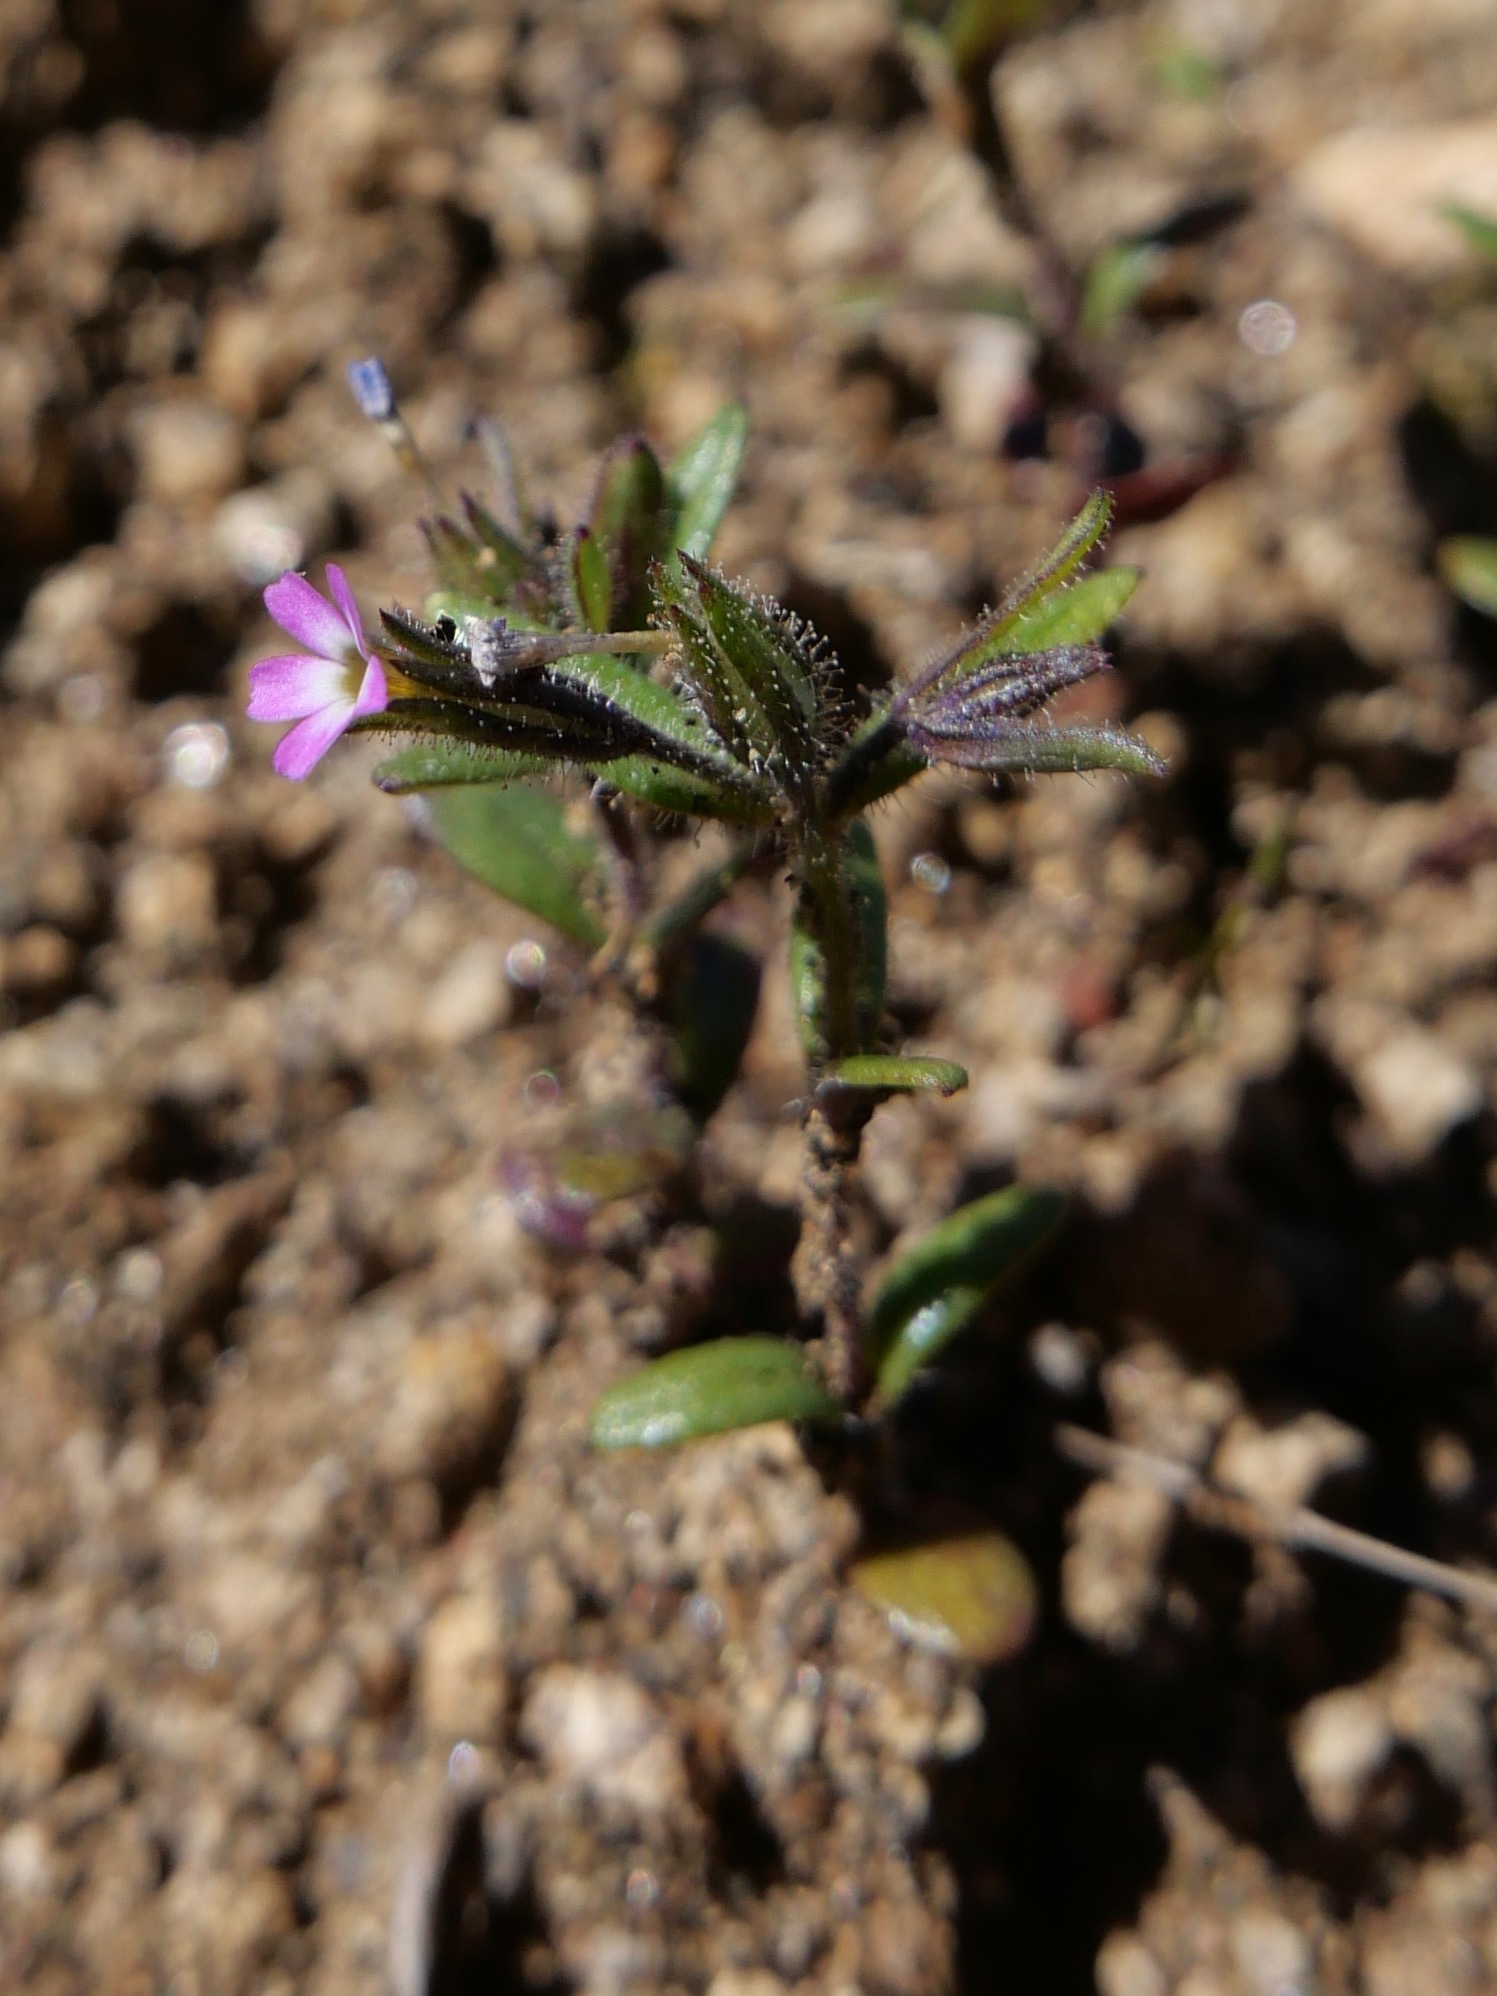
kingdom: Plantae
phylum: Tracheophyta
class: Magnoliopsida
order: Ericales
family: Polemoniaceae
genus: Phlox
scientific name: Phlox gracilis
